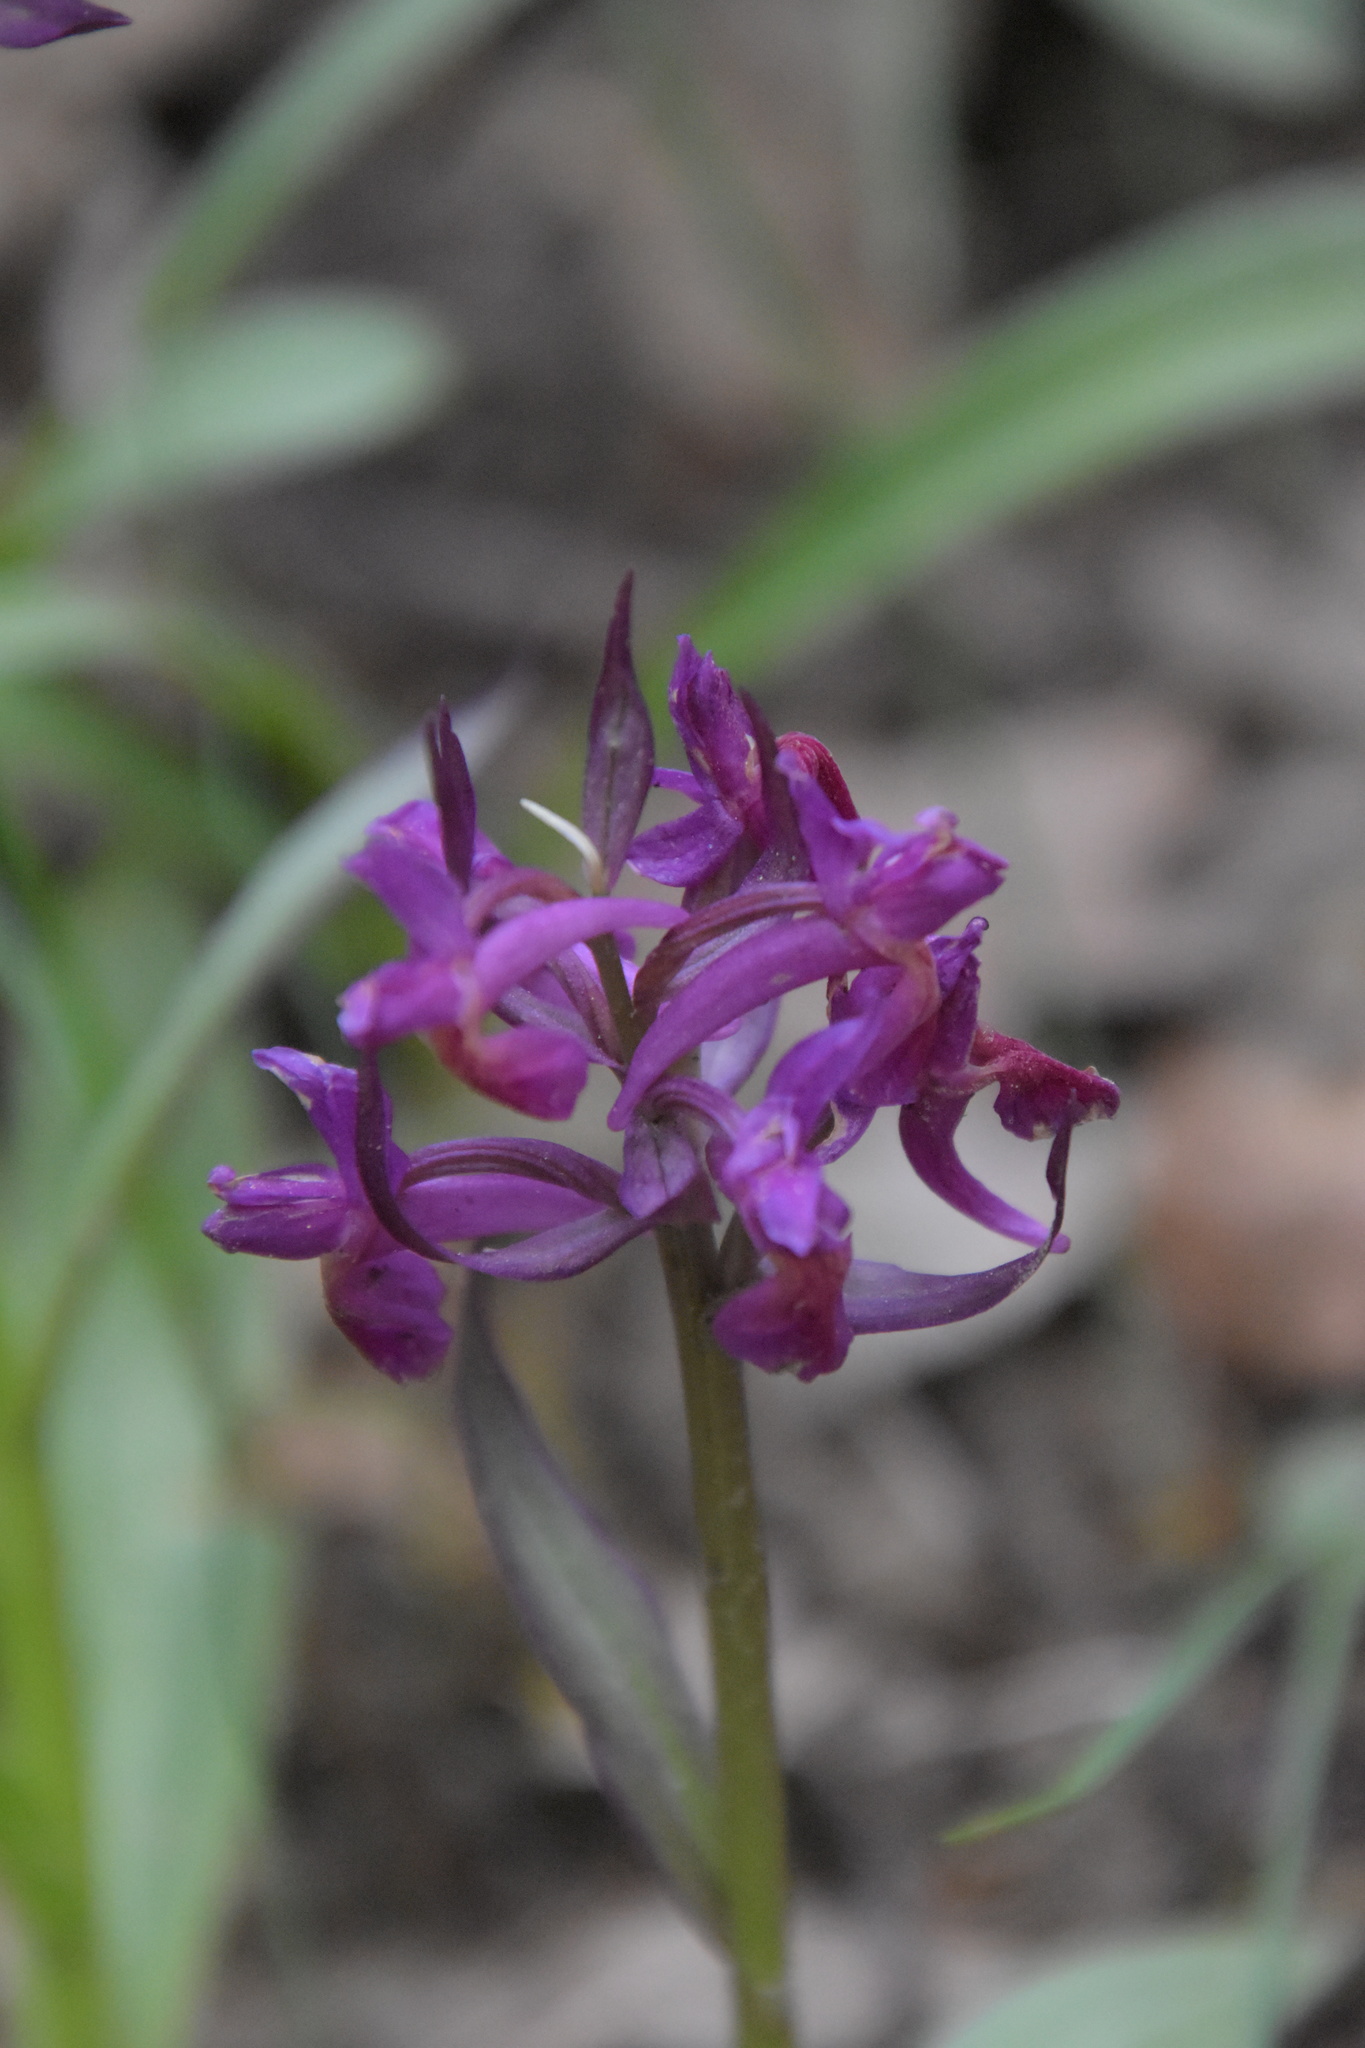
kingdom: Plantae
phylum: Tracheophyta
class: Liliopsida
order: Asparagales
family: Orchidaceae
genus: Dactylorhiza
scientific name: Dactylorhiza sambucina
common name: Elder-flowered orchid
